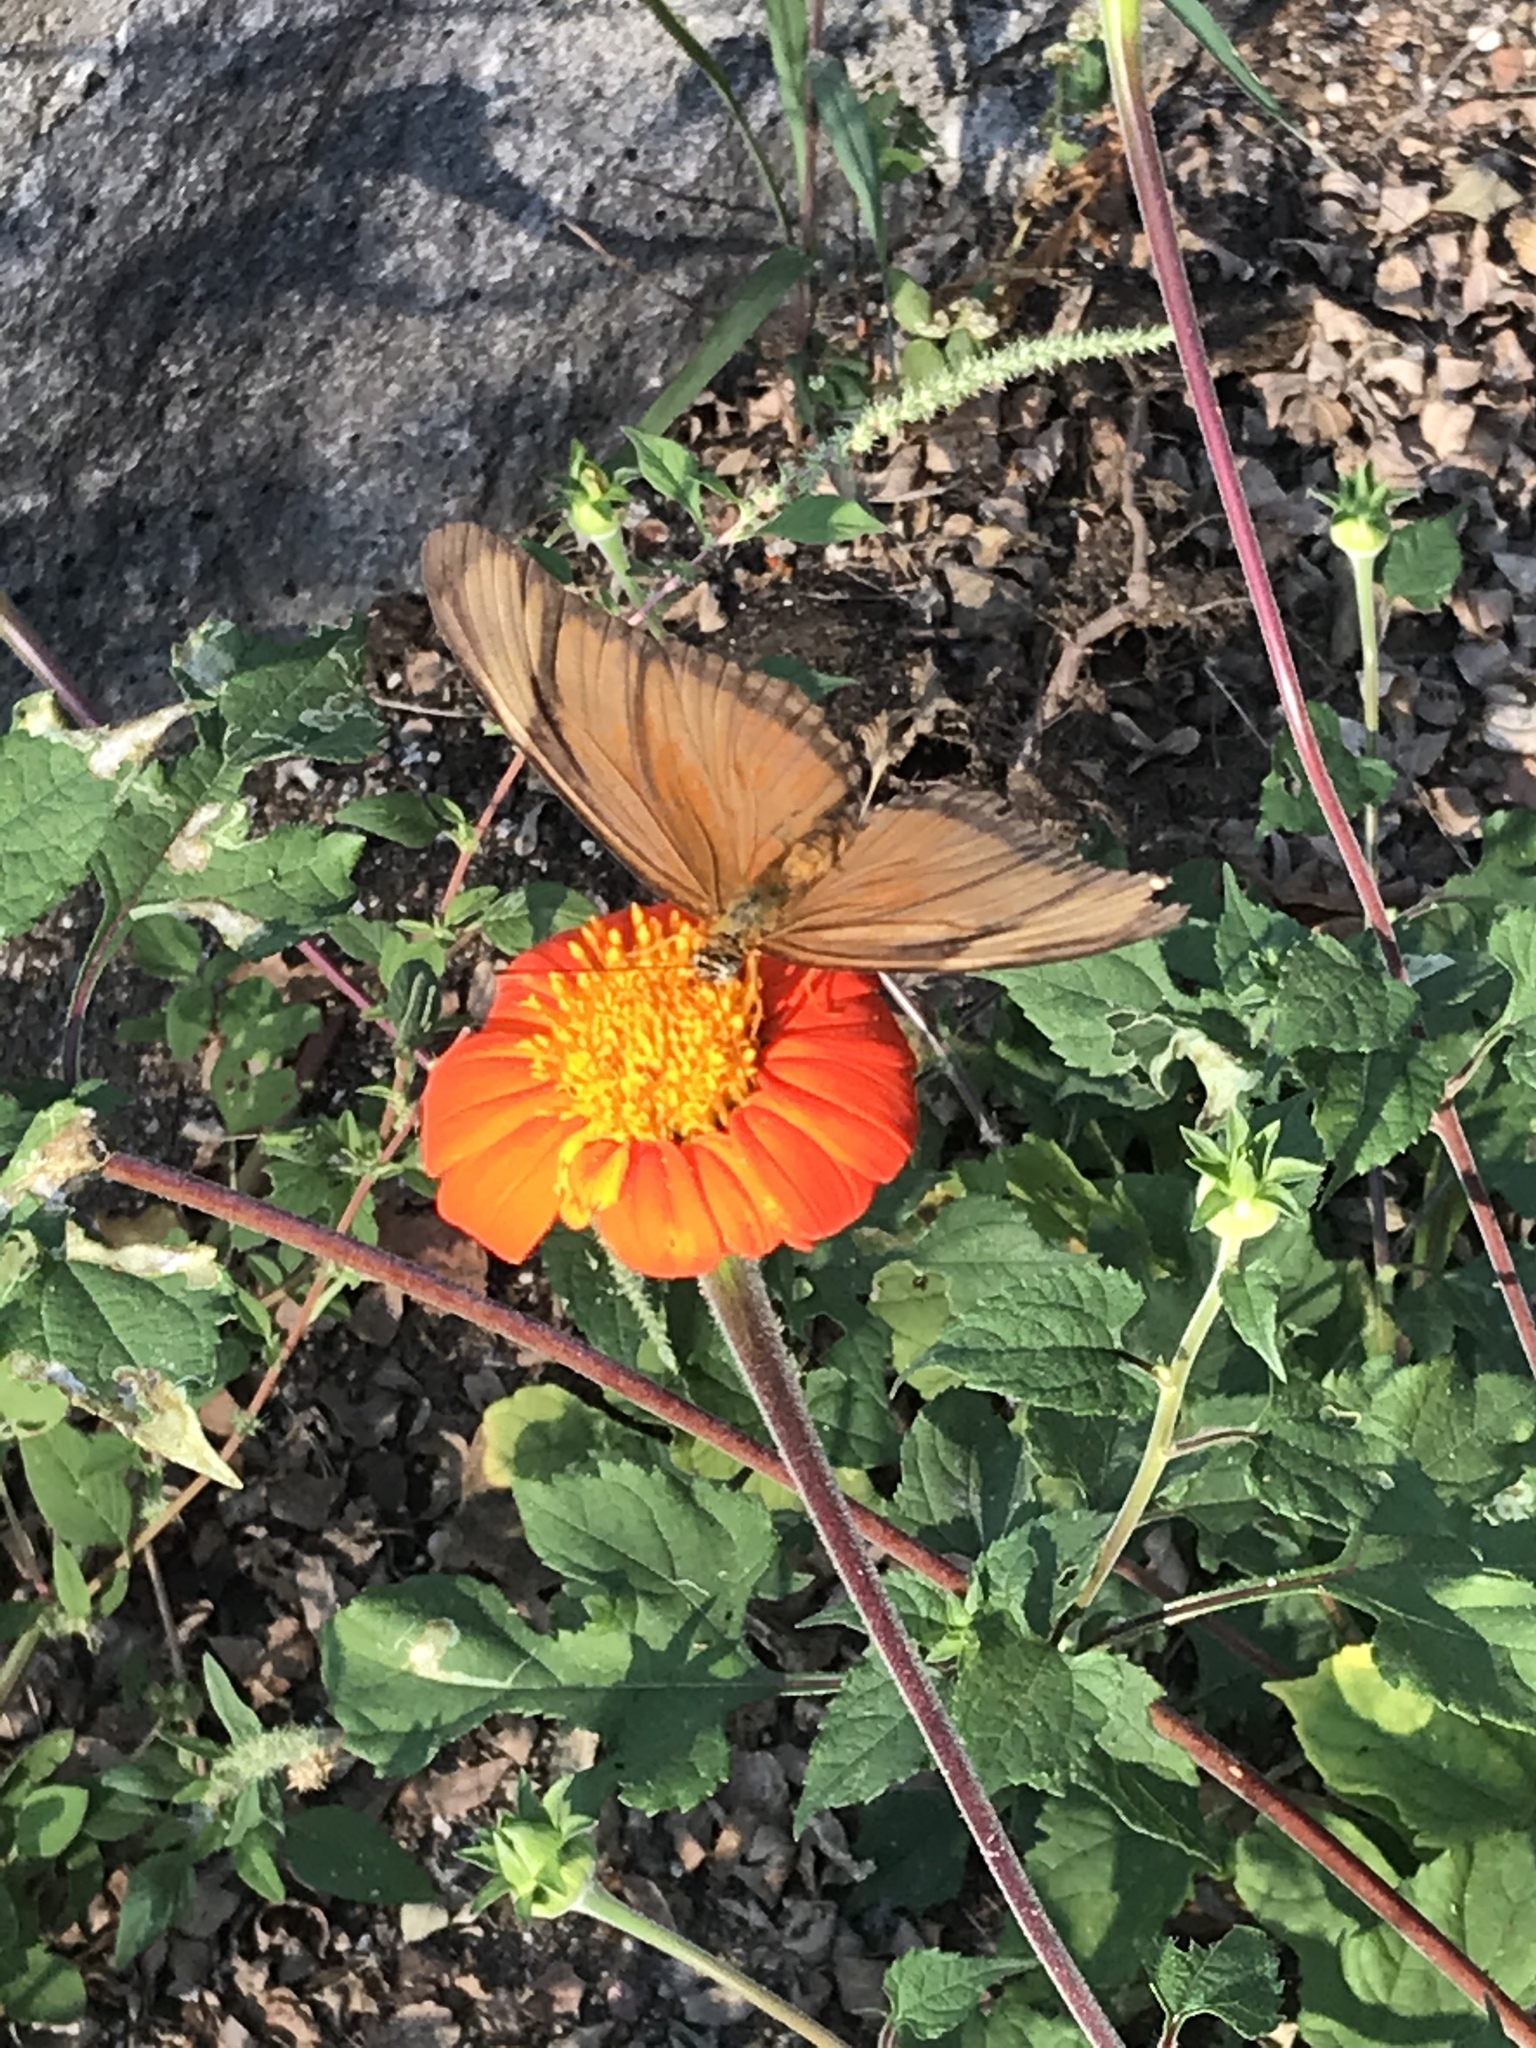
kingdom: Animalia
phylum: Arthropoda
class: Insecta
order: Lepidoptera
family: Nymphalidae
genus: Dryas
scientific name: Dryas iulia
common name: Flambeau
